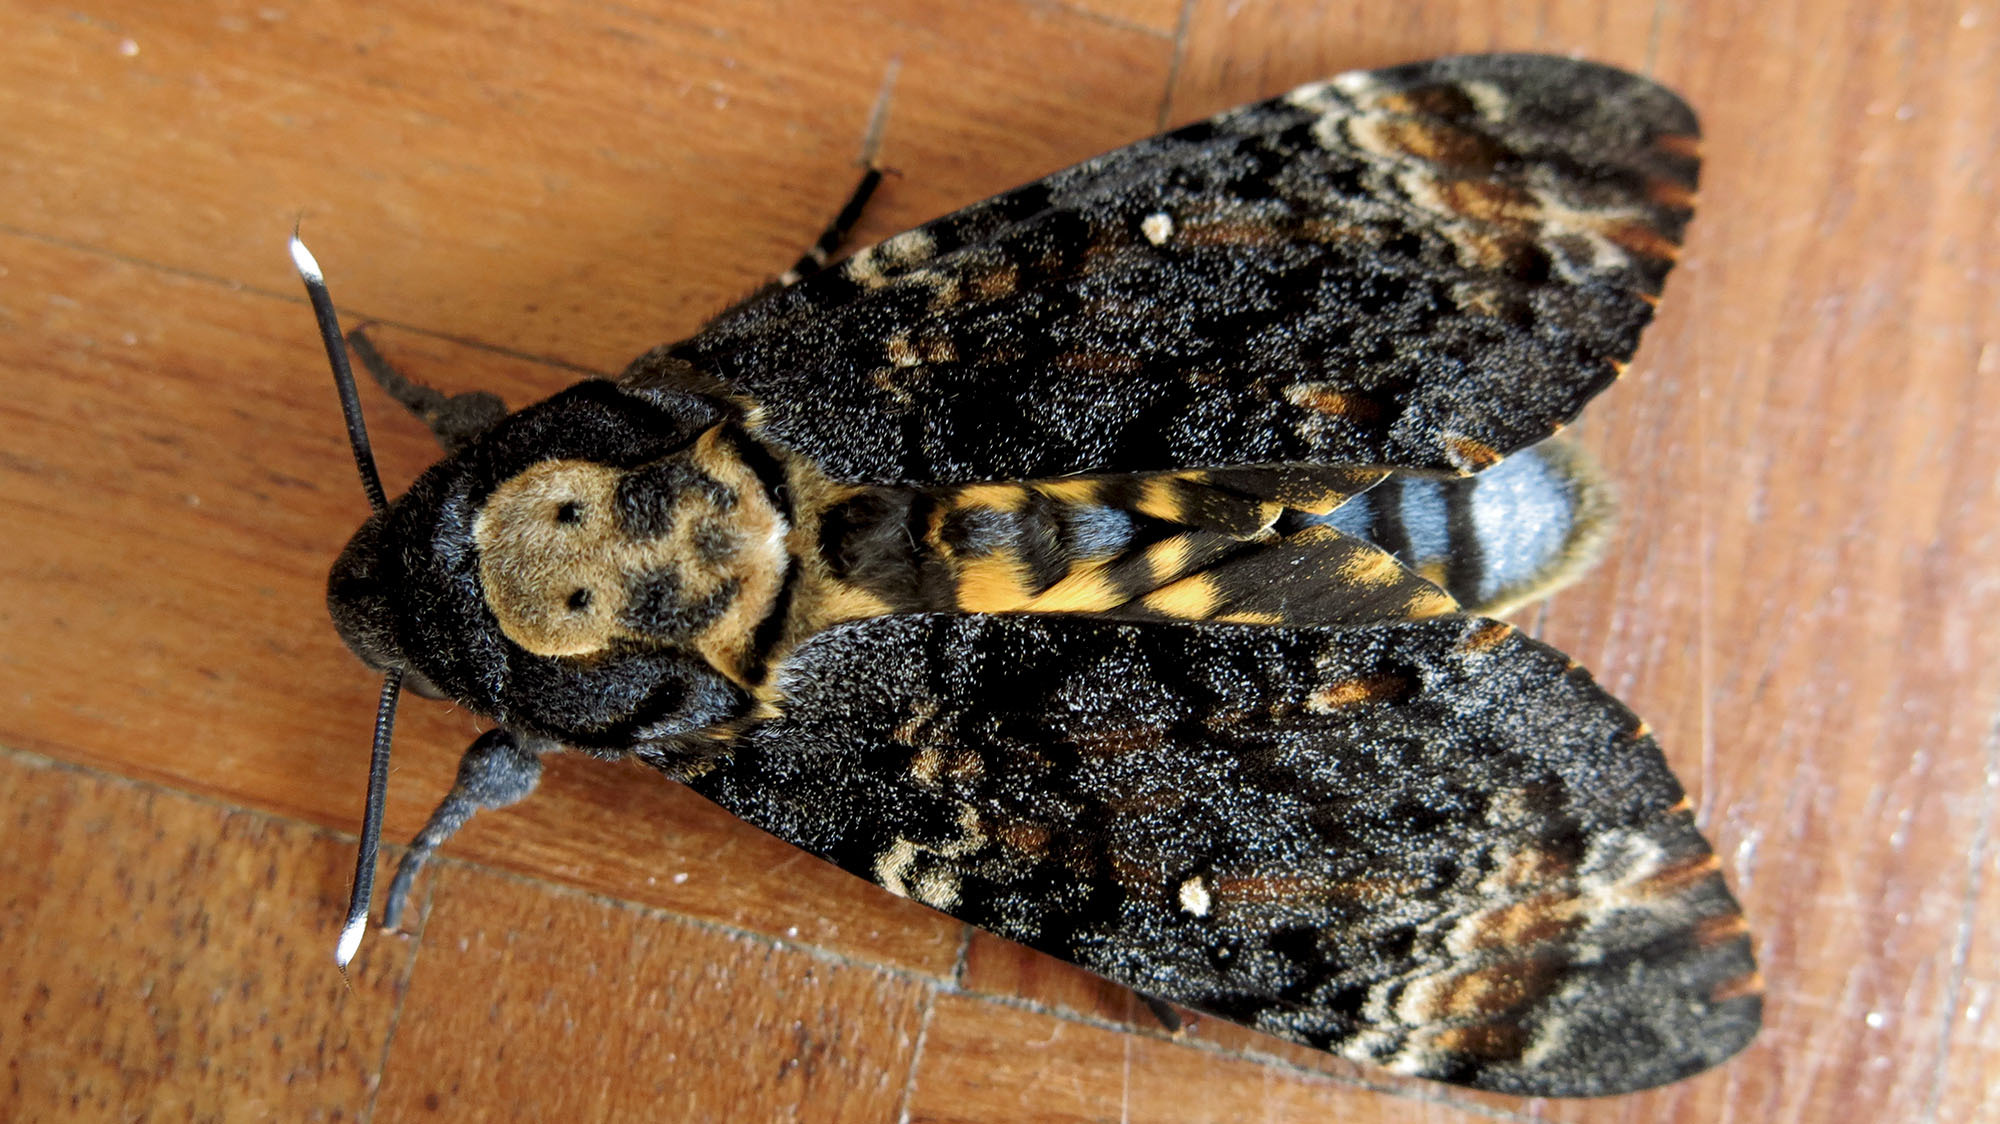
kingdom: Animalia
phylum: Arthropoda
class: Insecta
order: Lepidoptera
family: Sphingidae
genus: Acherontia
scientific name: Acherontia atropos
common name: Death's-head hawk moth
